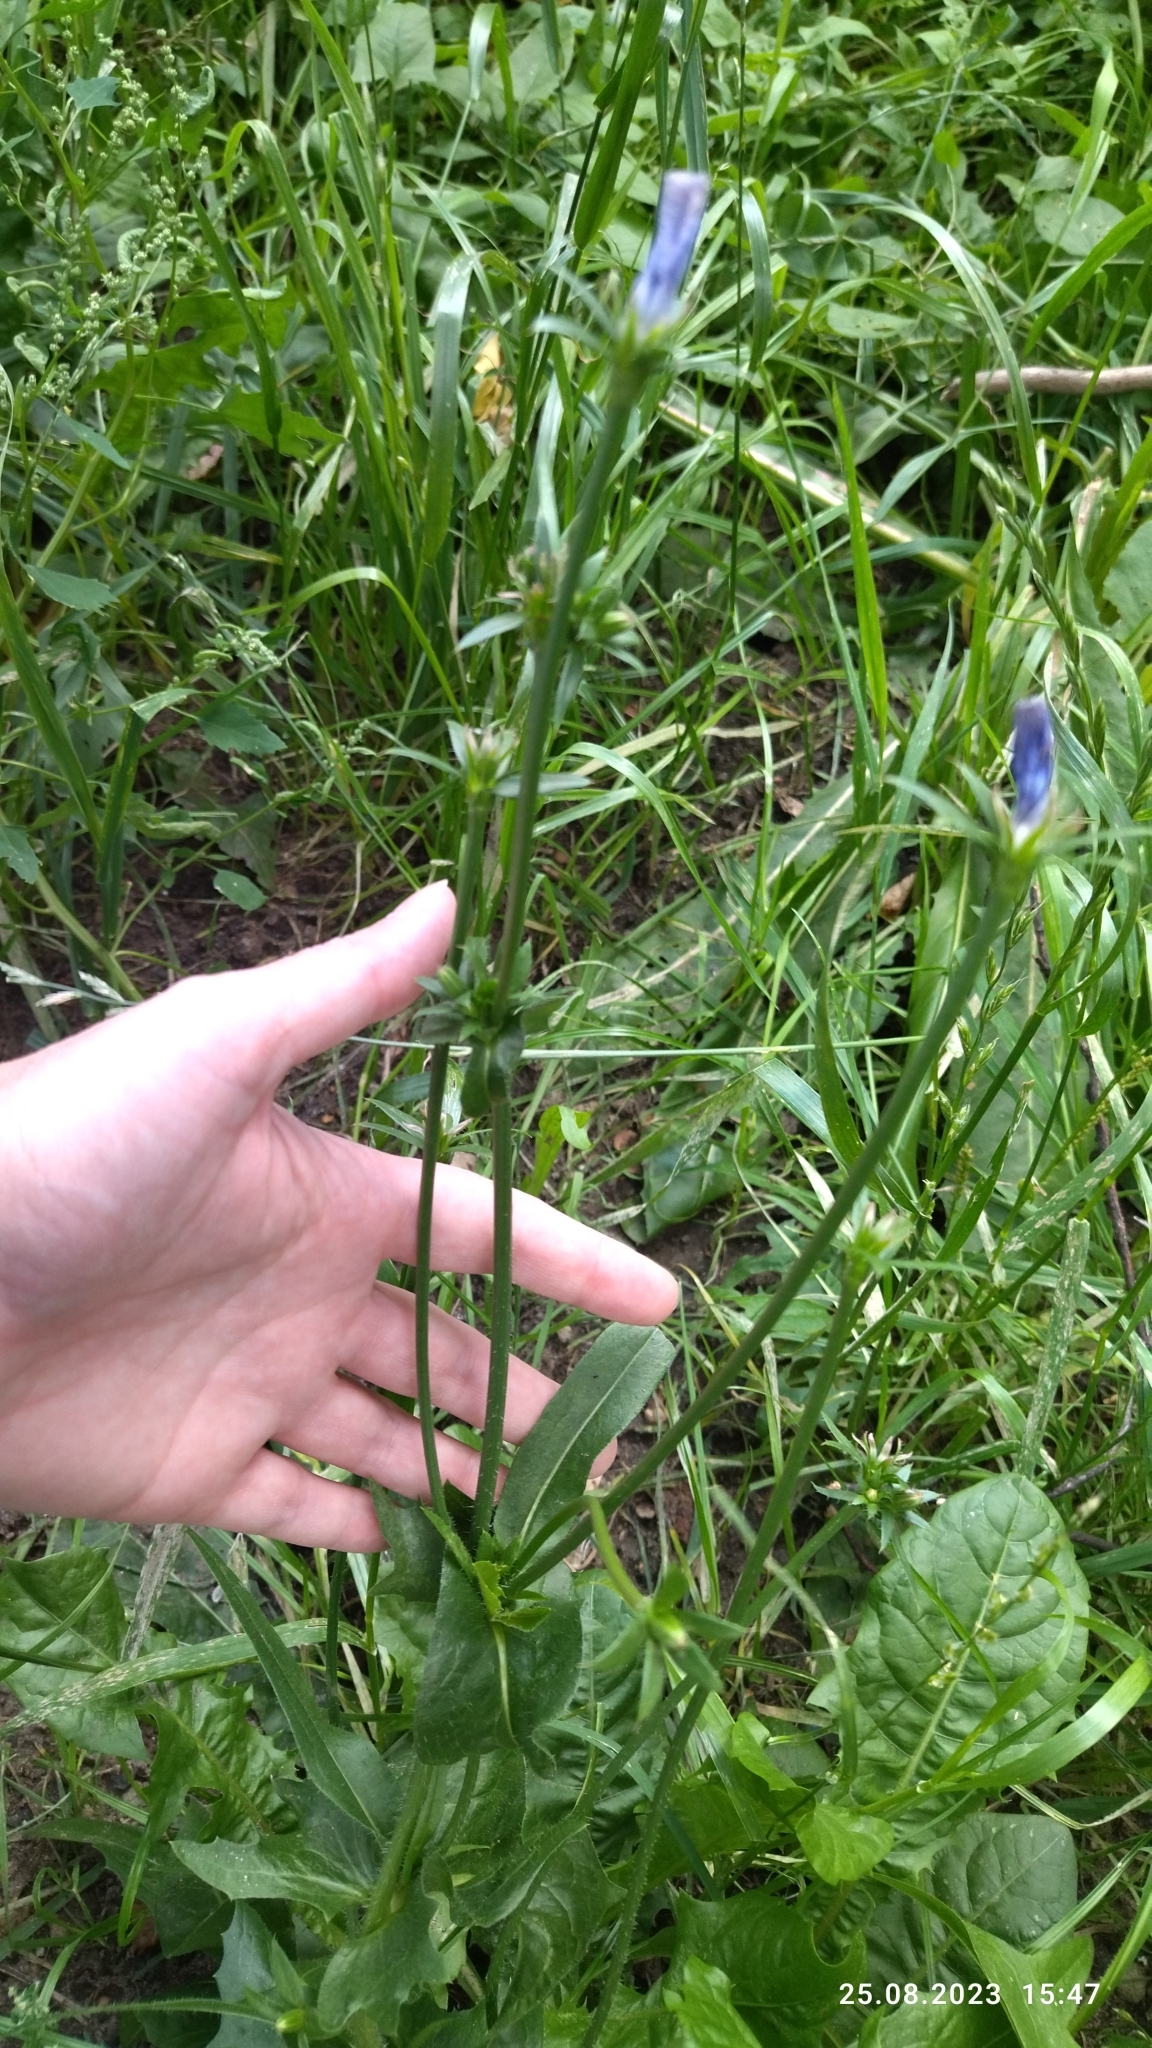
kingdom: Plantae
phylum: Tracheophyta
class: Magnoliopsida
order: Asterales
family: Asteraceae
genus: Cichorium
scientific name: Cichorium intybus
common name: Chicory
